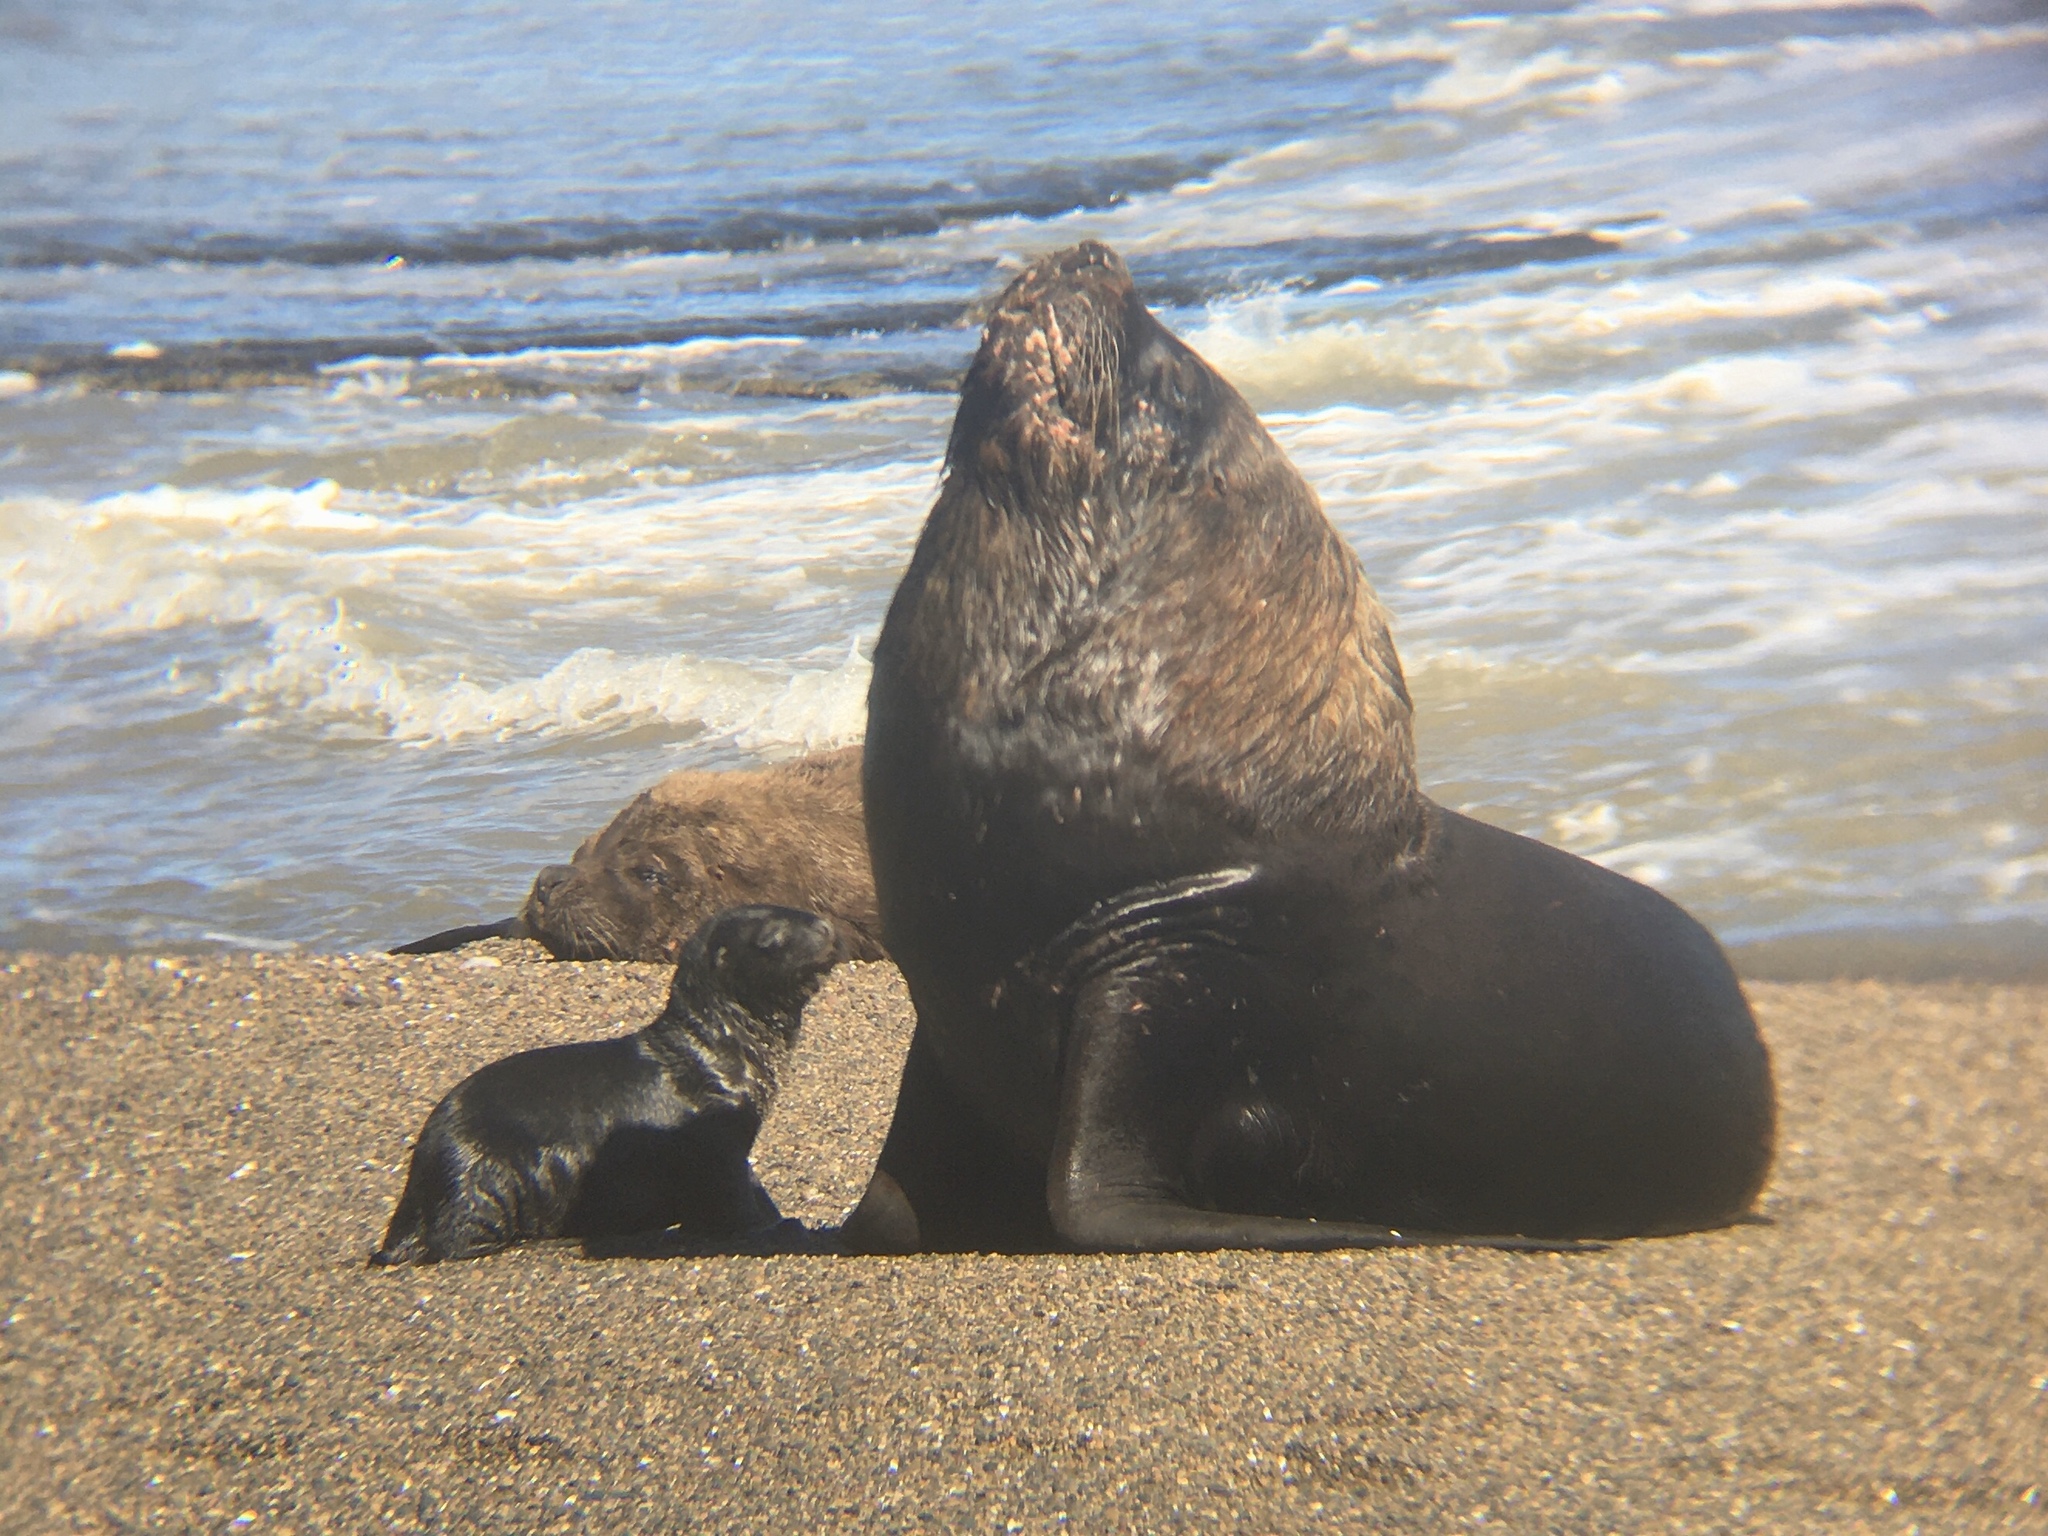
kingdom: Animalia
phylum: Chordata
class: Mammalia
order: Carnivora
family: Otariidae
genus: Otaria
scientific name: Otaria byronia
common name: South american sea lion
